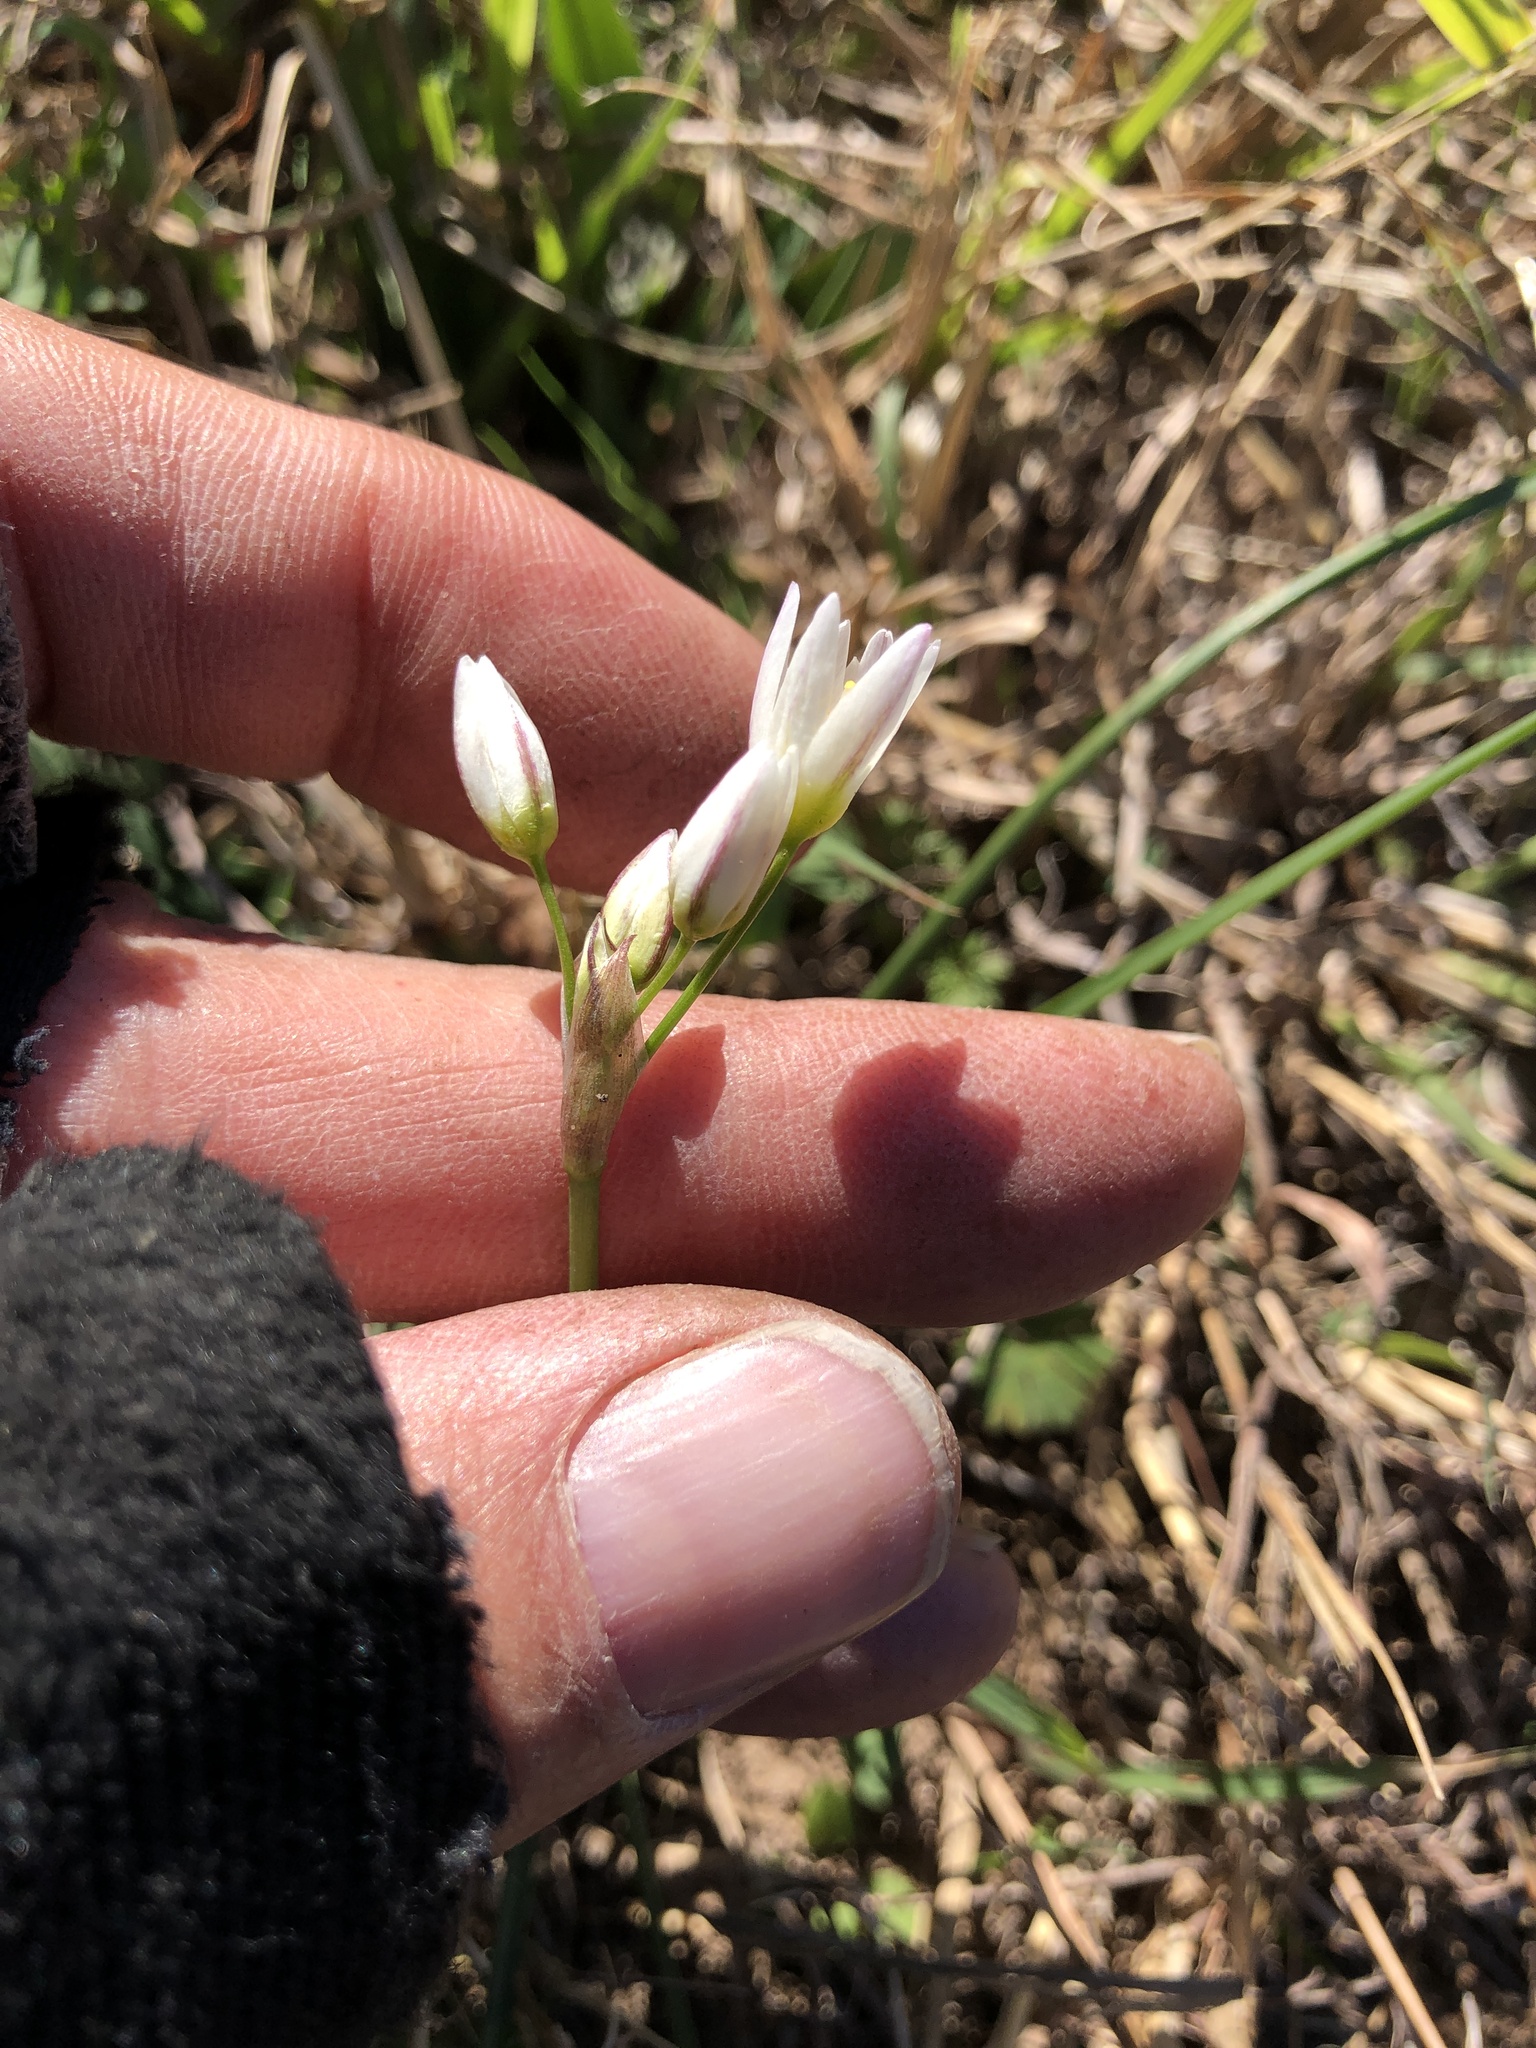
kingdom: Plantae
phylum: Tracheophyta
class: Liliopsida
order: Asparagales
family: Amaryllidaceae
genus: Nothoscordum
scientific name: Nothoscordum bivalve
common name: Crow-poison
